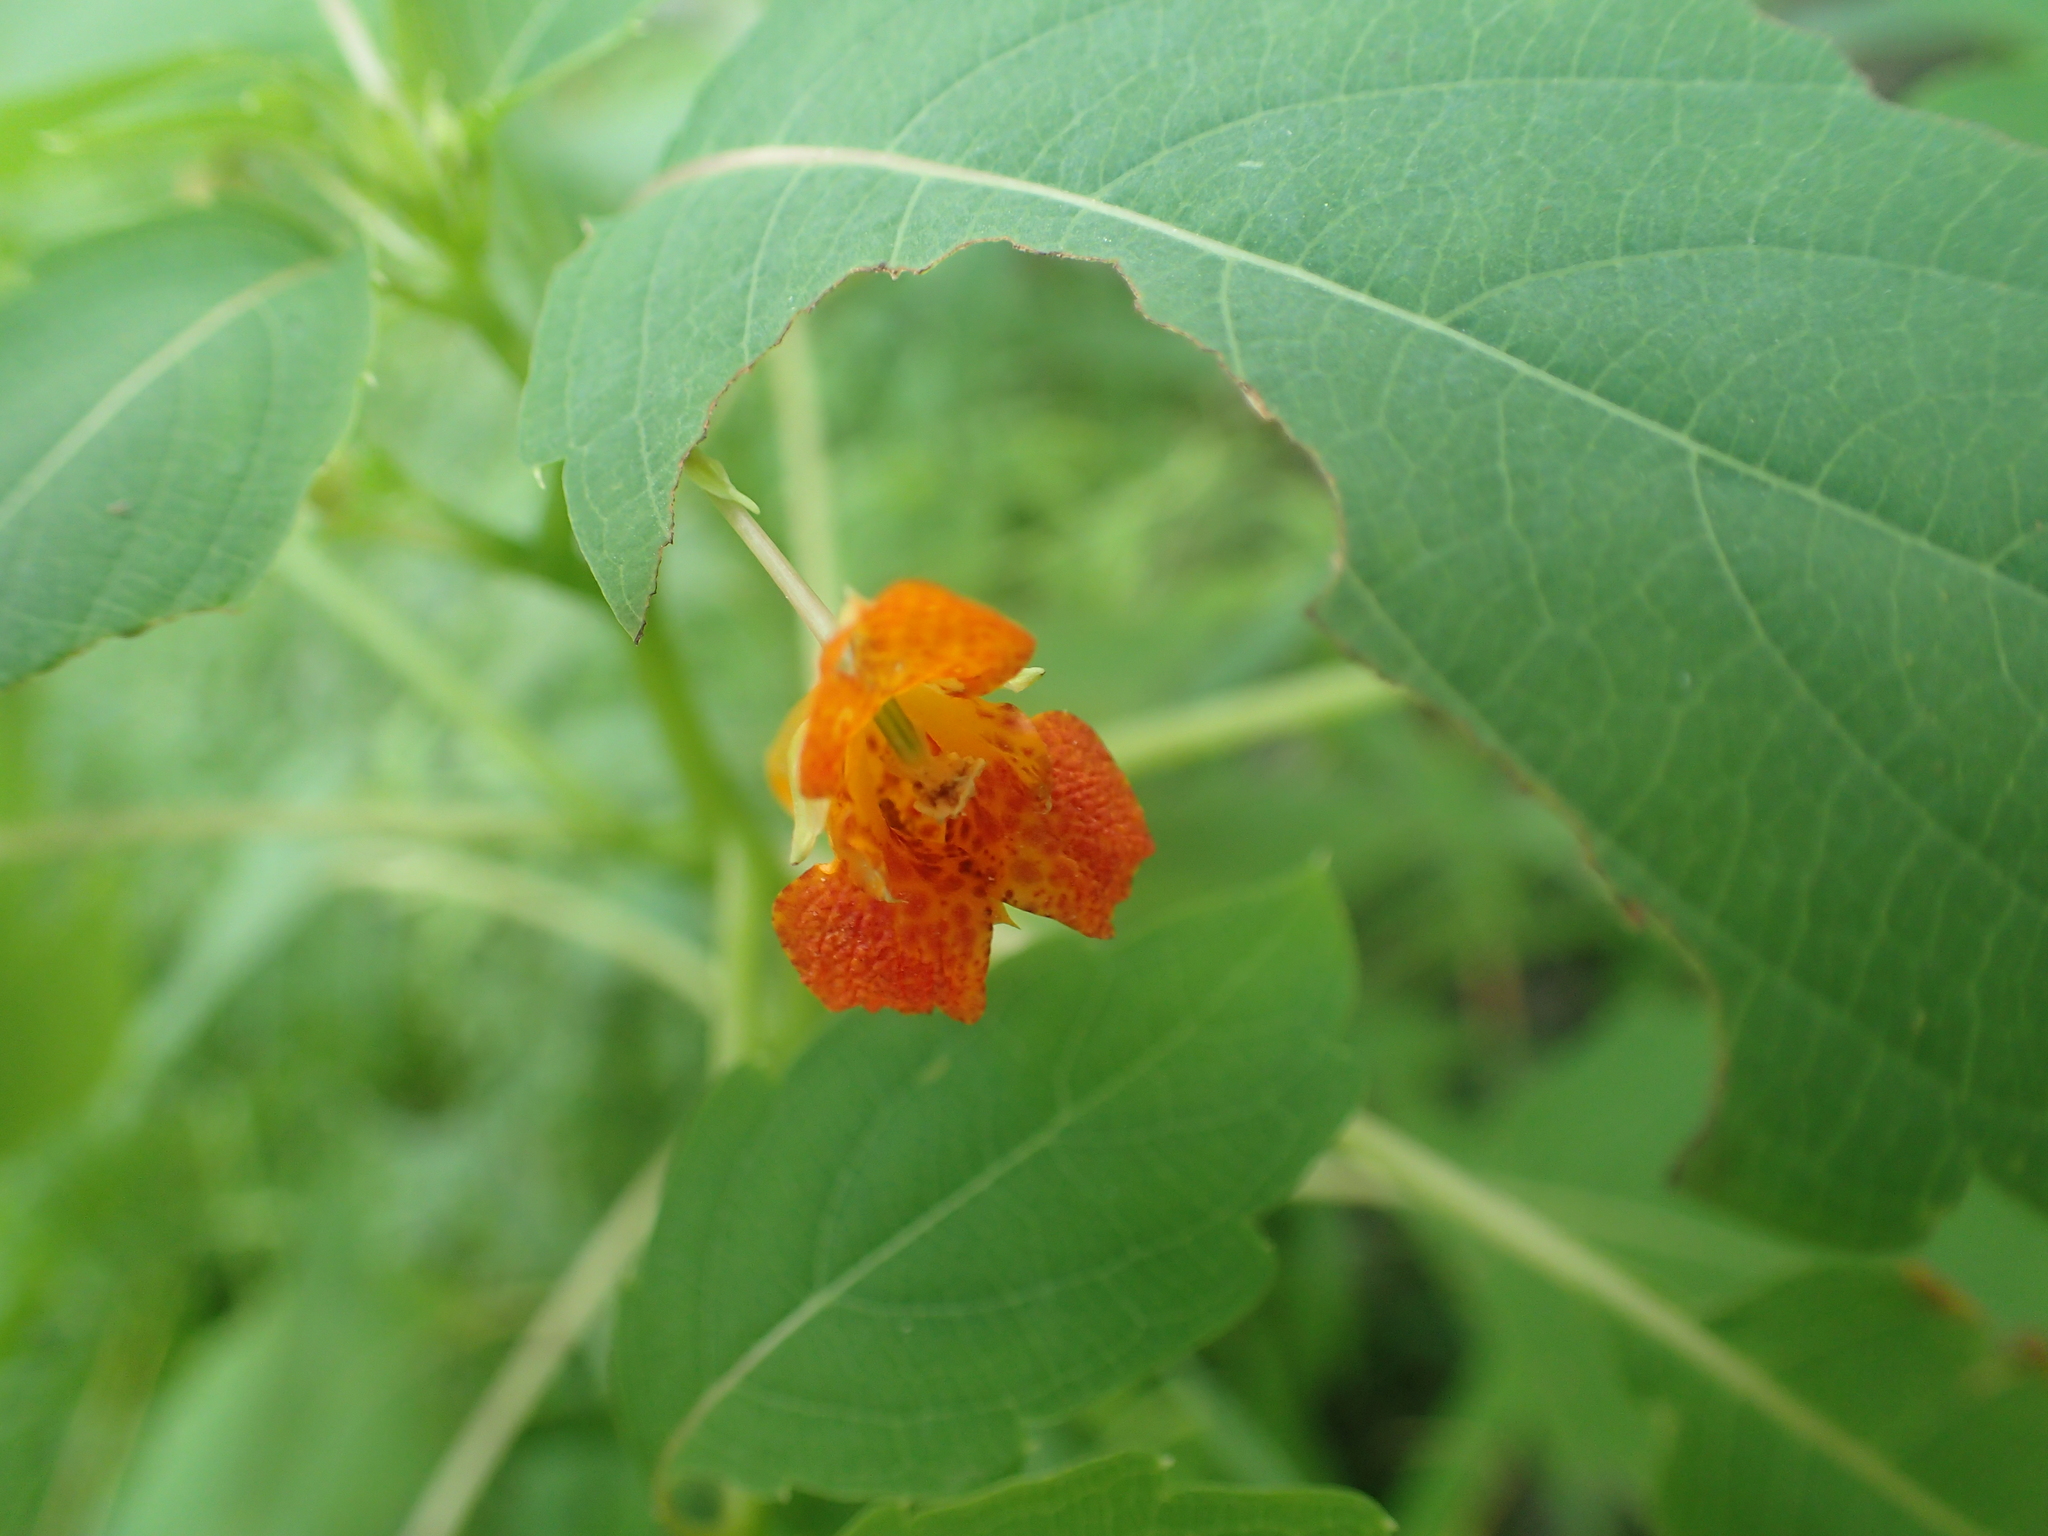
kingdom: Plantae
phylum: Tracheophyta
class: Magnoliopsida
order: Ericales
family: Balsaminaceae
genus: Impatiens
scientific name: Impatiens capensis
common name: Orange balsam
